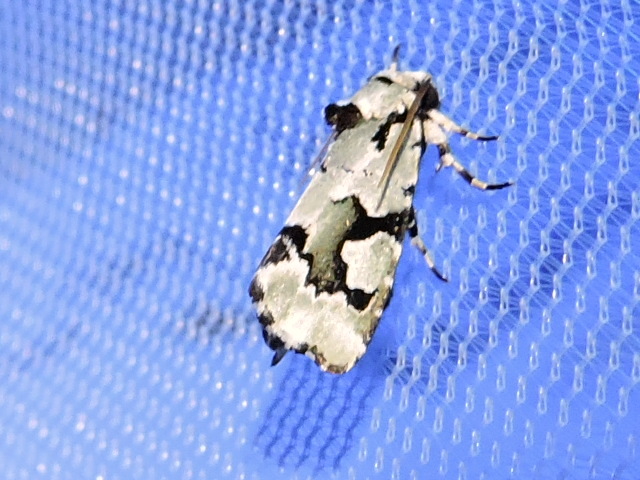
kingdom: Animalia
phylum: Arthropoda
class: Insecta
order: Lepidoptera
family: Noctuidae
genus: Emarginea
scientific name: Emarginea percara
